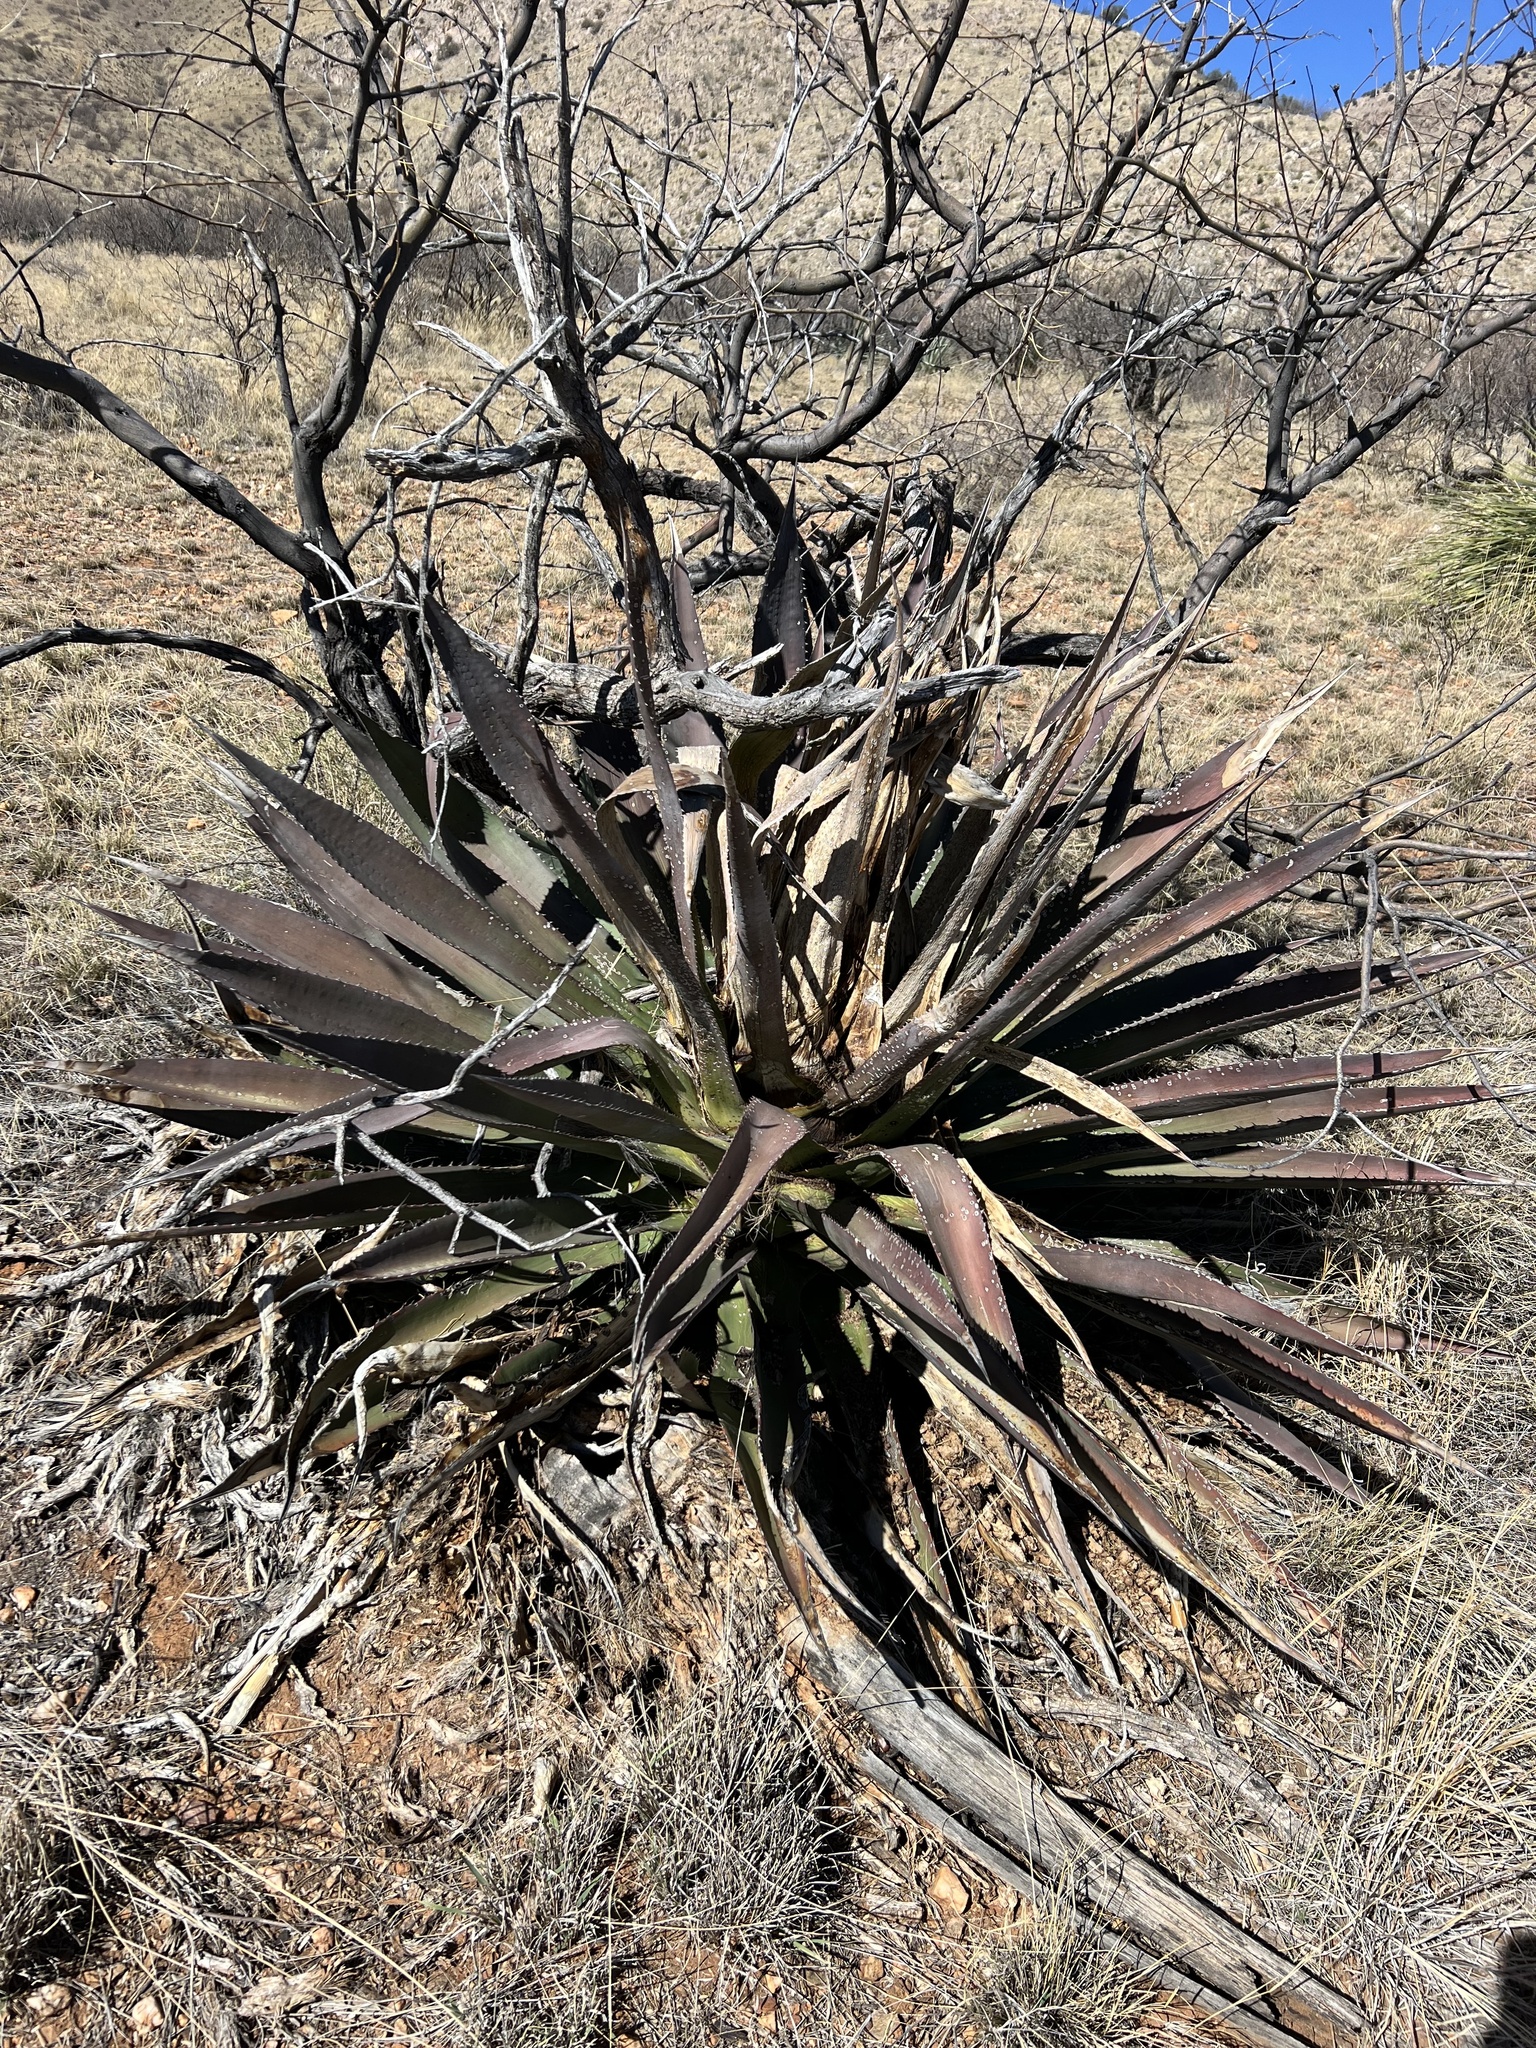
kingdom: Plantae
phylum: Tracheophyta
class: Liliopsida
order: Asparagales
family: Asparagaceae
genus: Agave
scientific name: Agave palmeri
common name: Palmer agave
